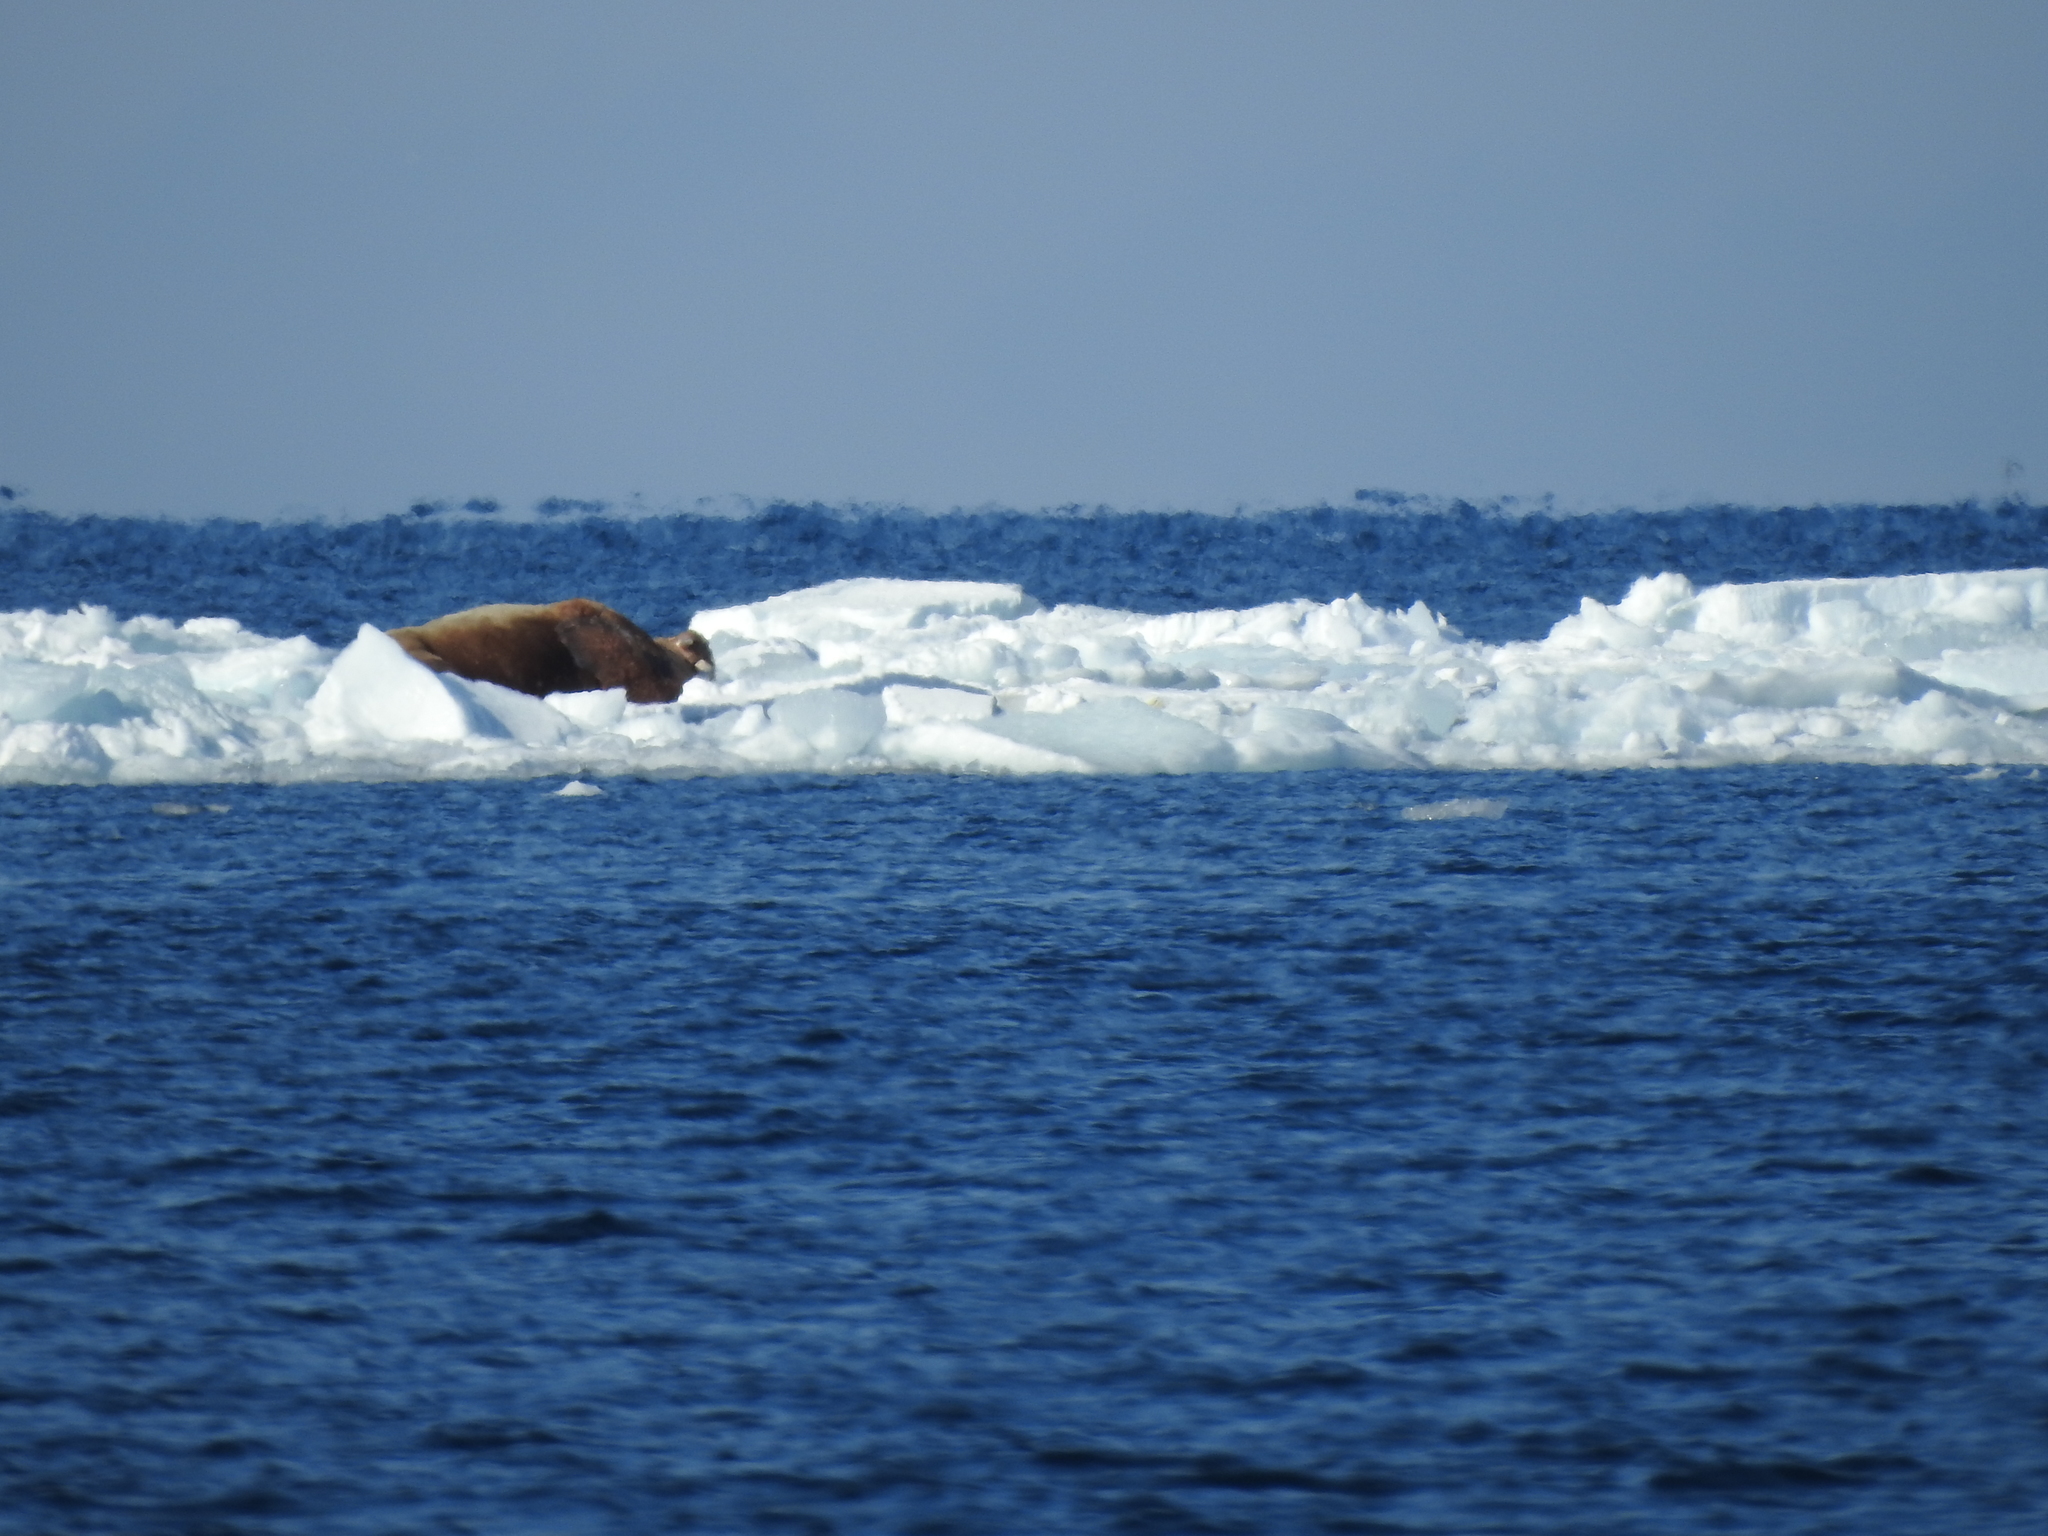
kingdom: Animalia
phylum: Chordata
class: Mammalia
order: Carnivora
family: Odobenidae
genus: Odobenus
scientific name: Odobenus rosmarus
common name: Walrus
